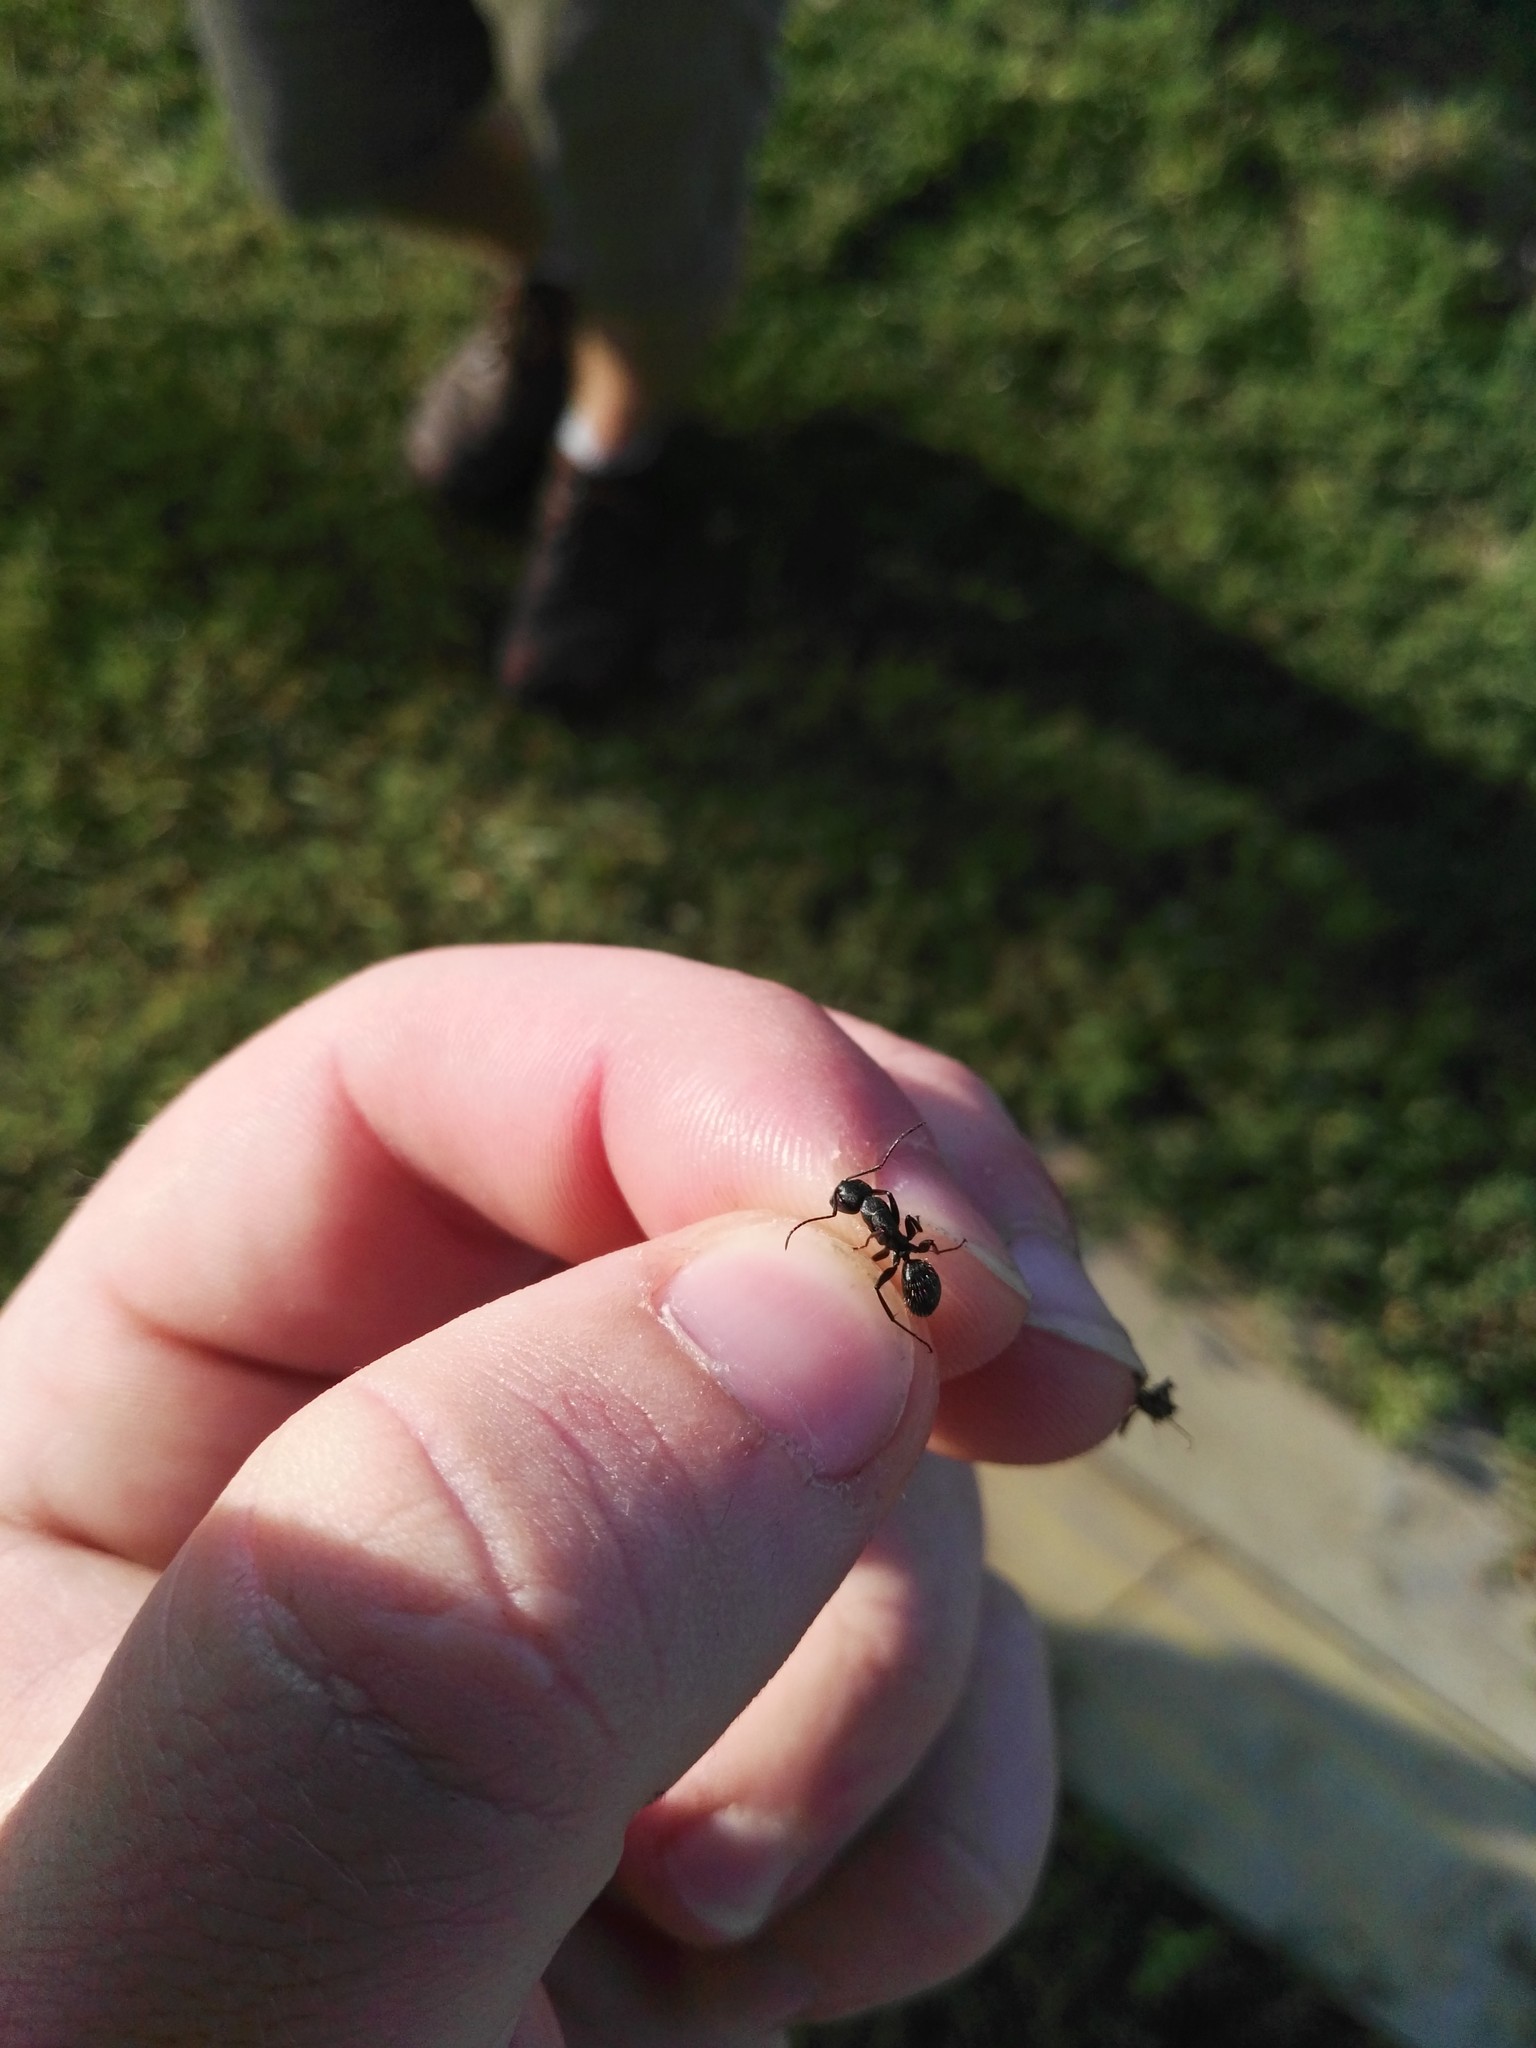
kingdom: Animalia
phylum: Arthropoda
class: Insecta
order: Hymenoptera
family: Formicidae
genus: Camponotus
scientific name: Camponotus vagus
